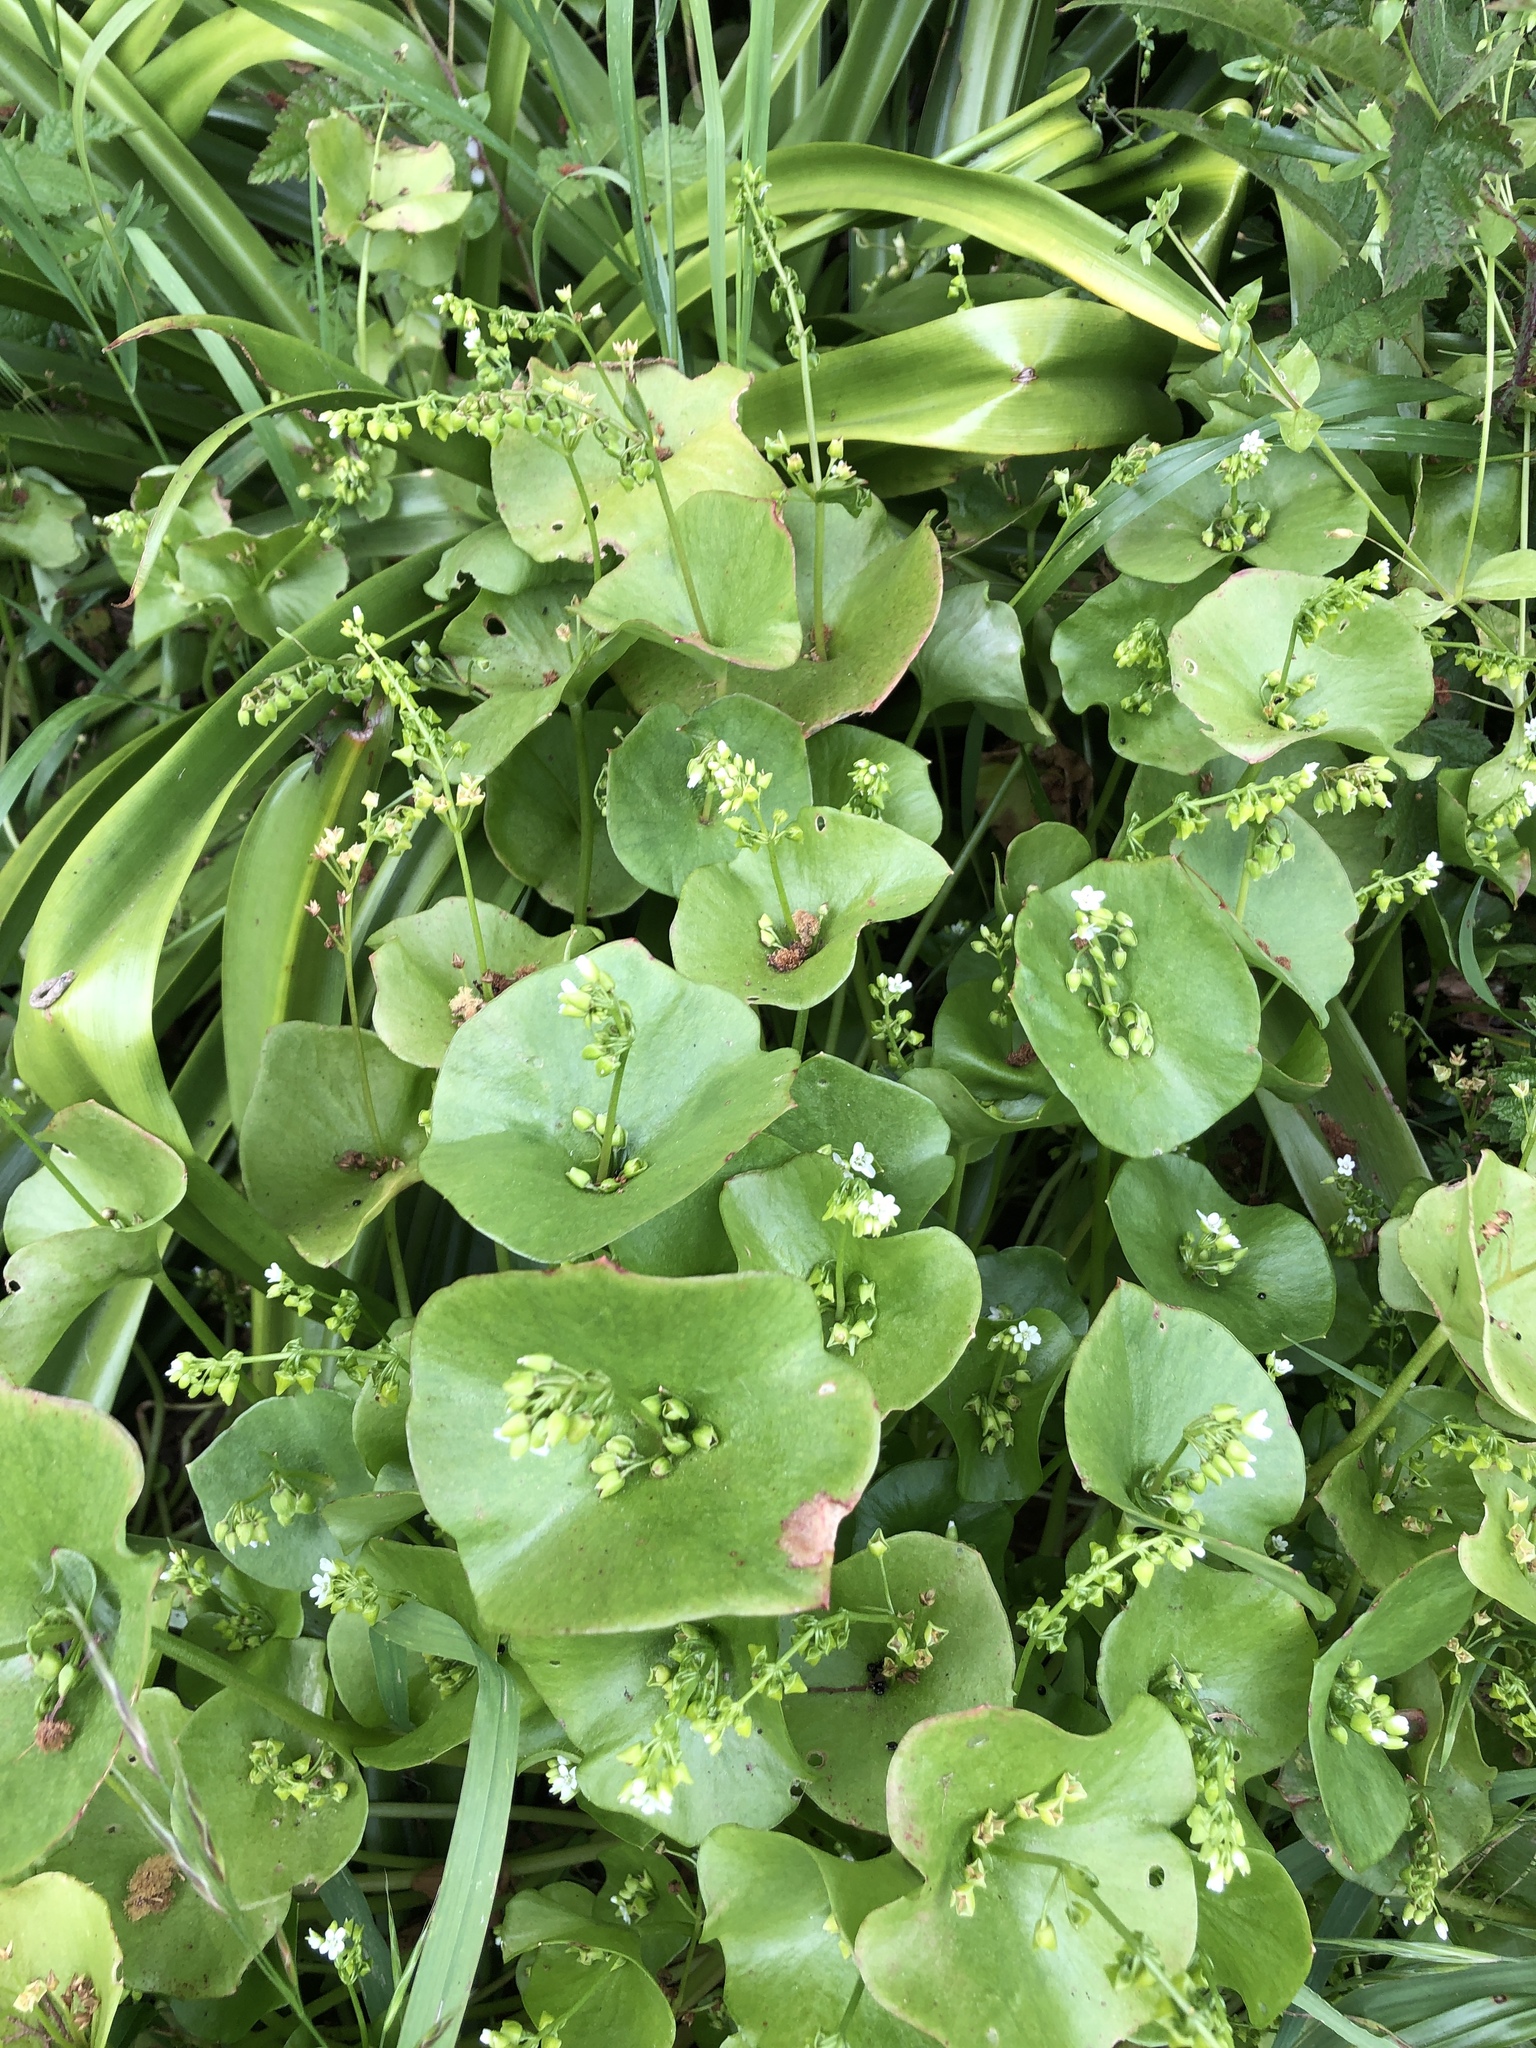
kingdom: Plantae
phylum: Tracheophyta
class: Magnoliopsida
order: Caryophyllales
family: Montiaceae
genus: Claytonia
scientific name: Claytonia perfoliata
